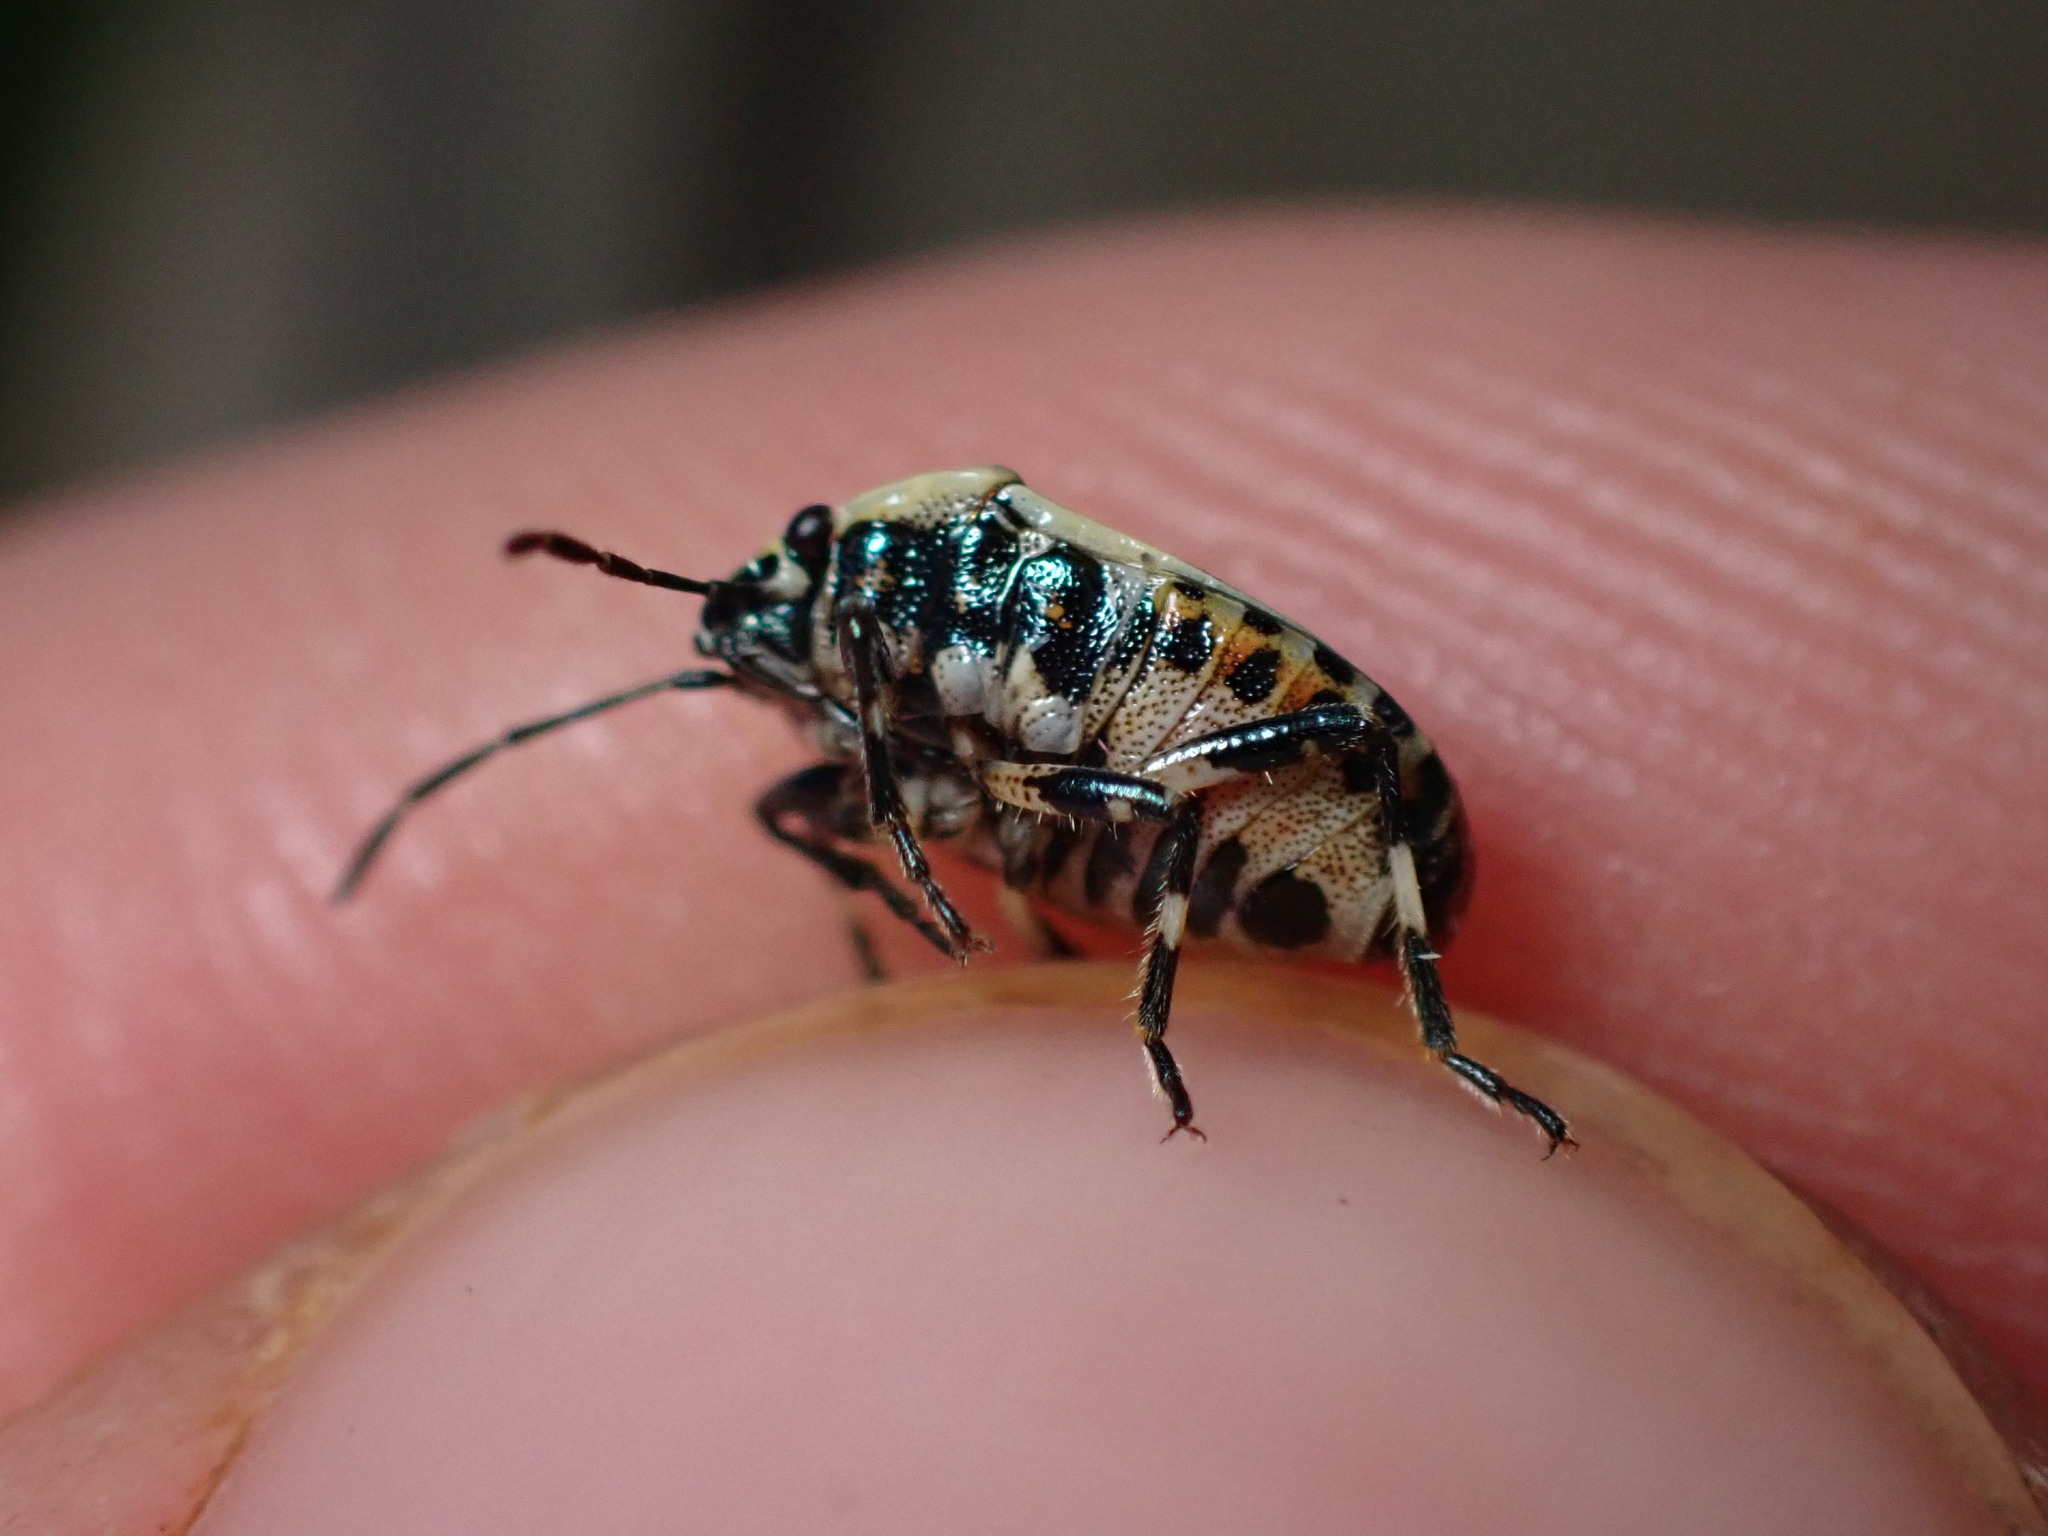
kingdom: Animalia
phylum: Arthropoda
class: Insecta
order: Hemiptera
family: Pentatomidae
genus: Eurydema
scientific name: Eurydema oleracea
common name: Cabbage bug
